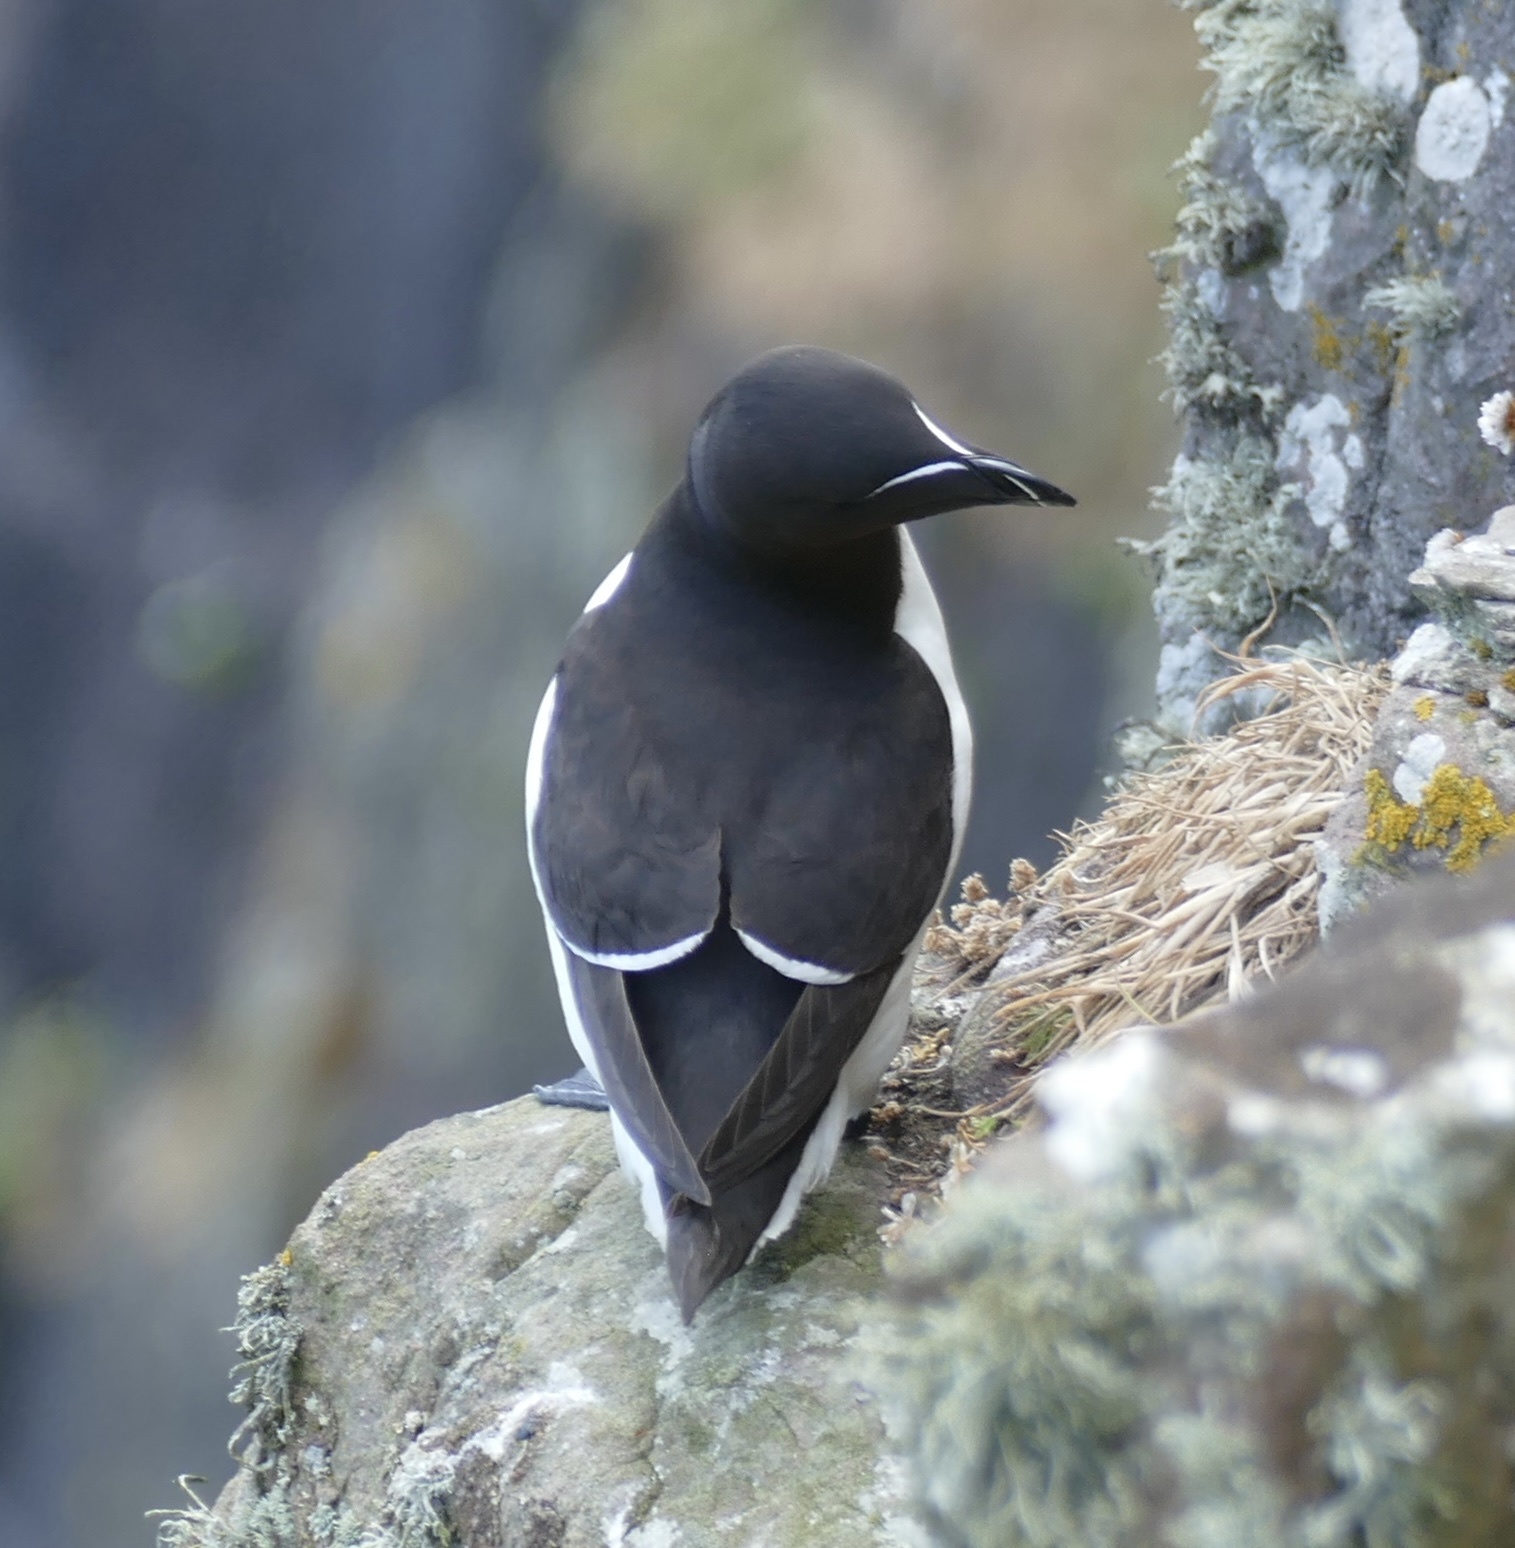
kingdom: Animalia
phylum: Chordata
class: Aves
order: Charadriiformes
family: Alcidae
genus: Alca
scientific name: Alca torda
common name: Razorbill
